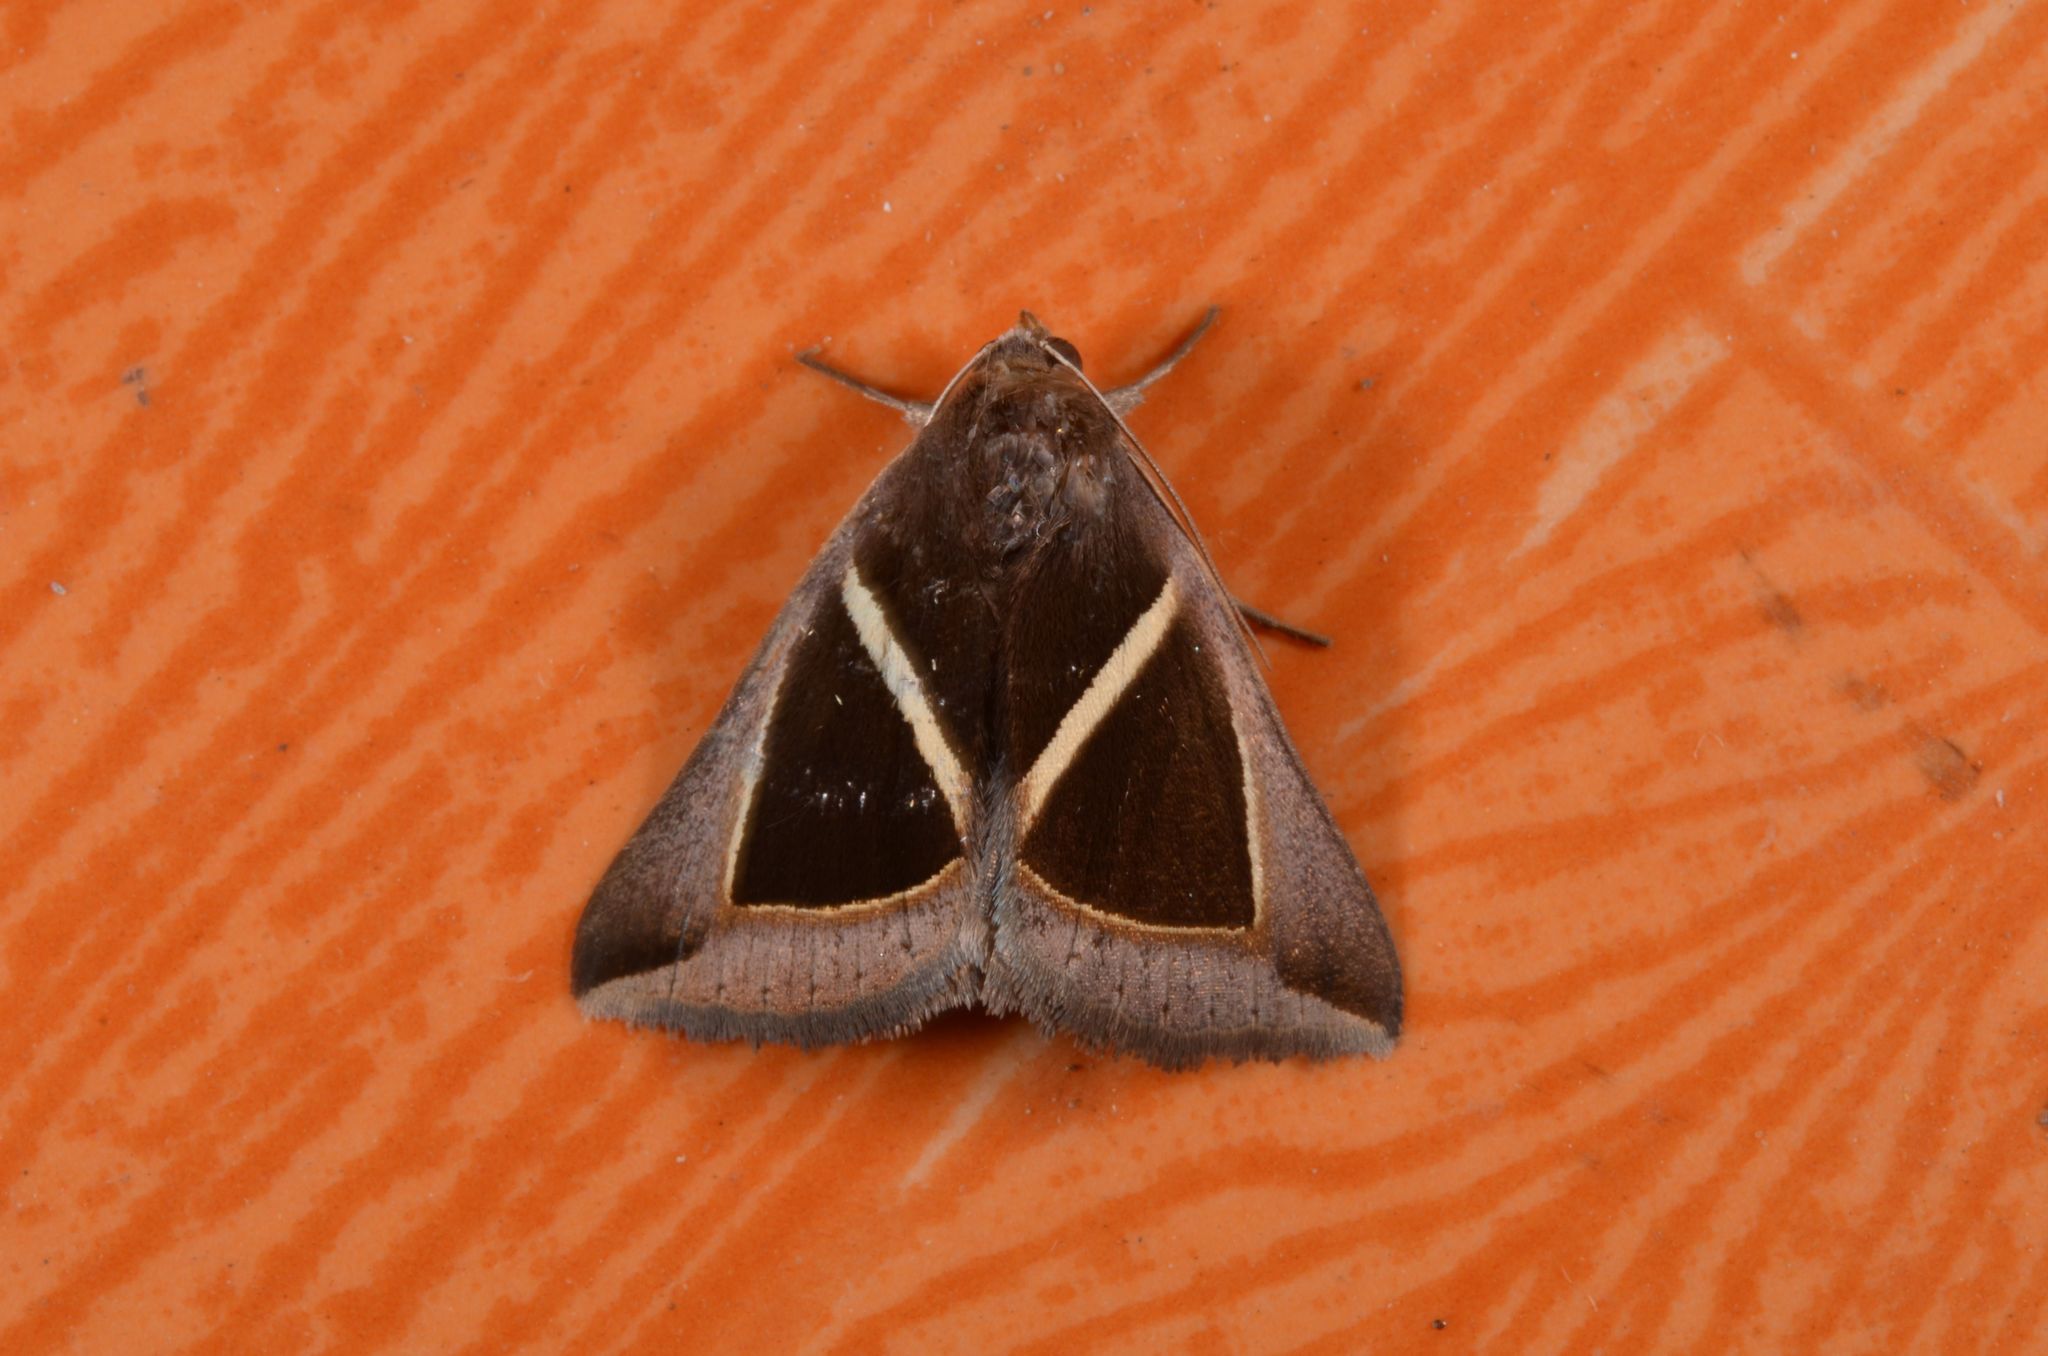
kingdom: Animalia
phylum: Arthropoda
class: Insecta
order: Lepidoptera
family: Erebidae
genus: Chalciope
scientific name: Chalciope mygdon
